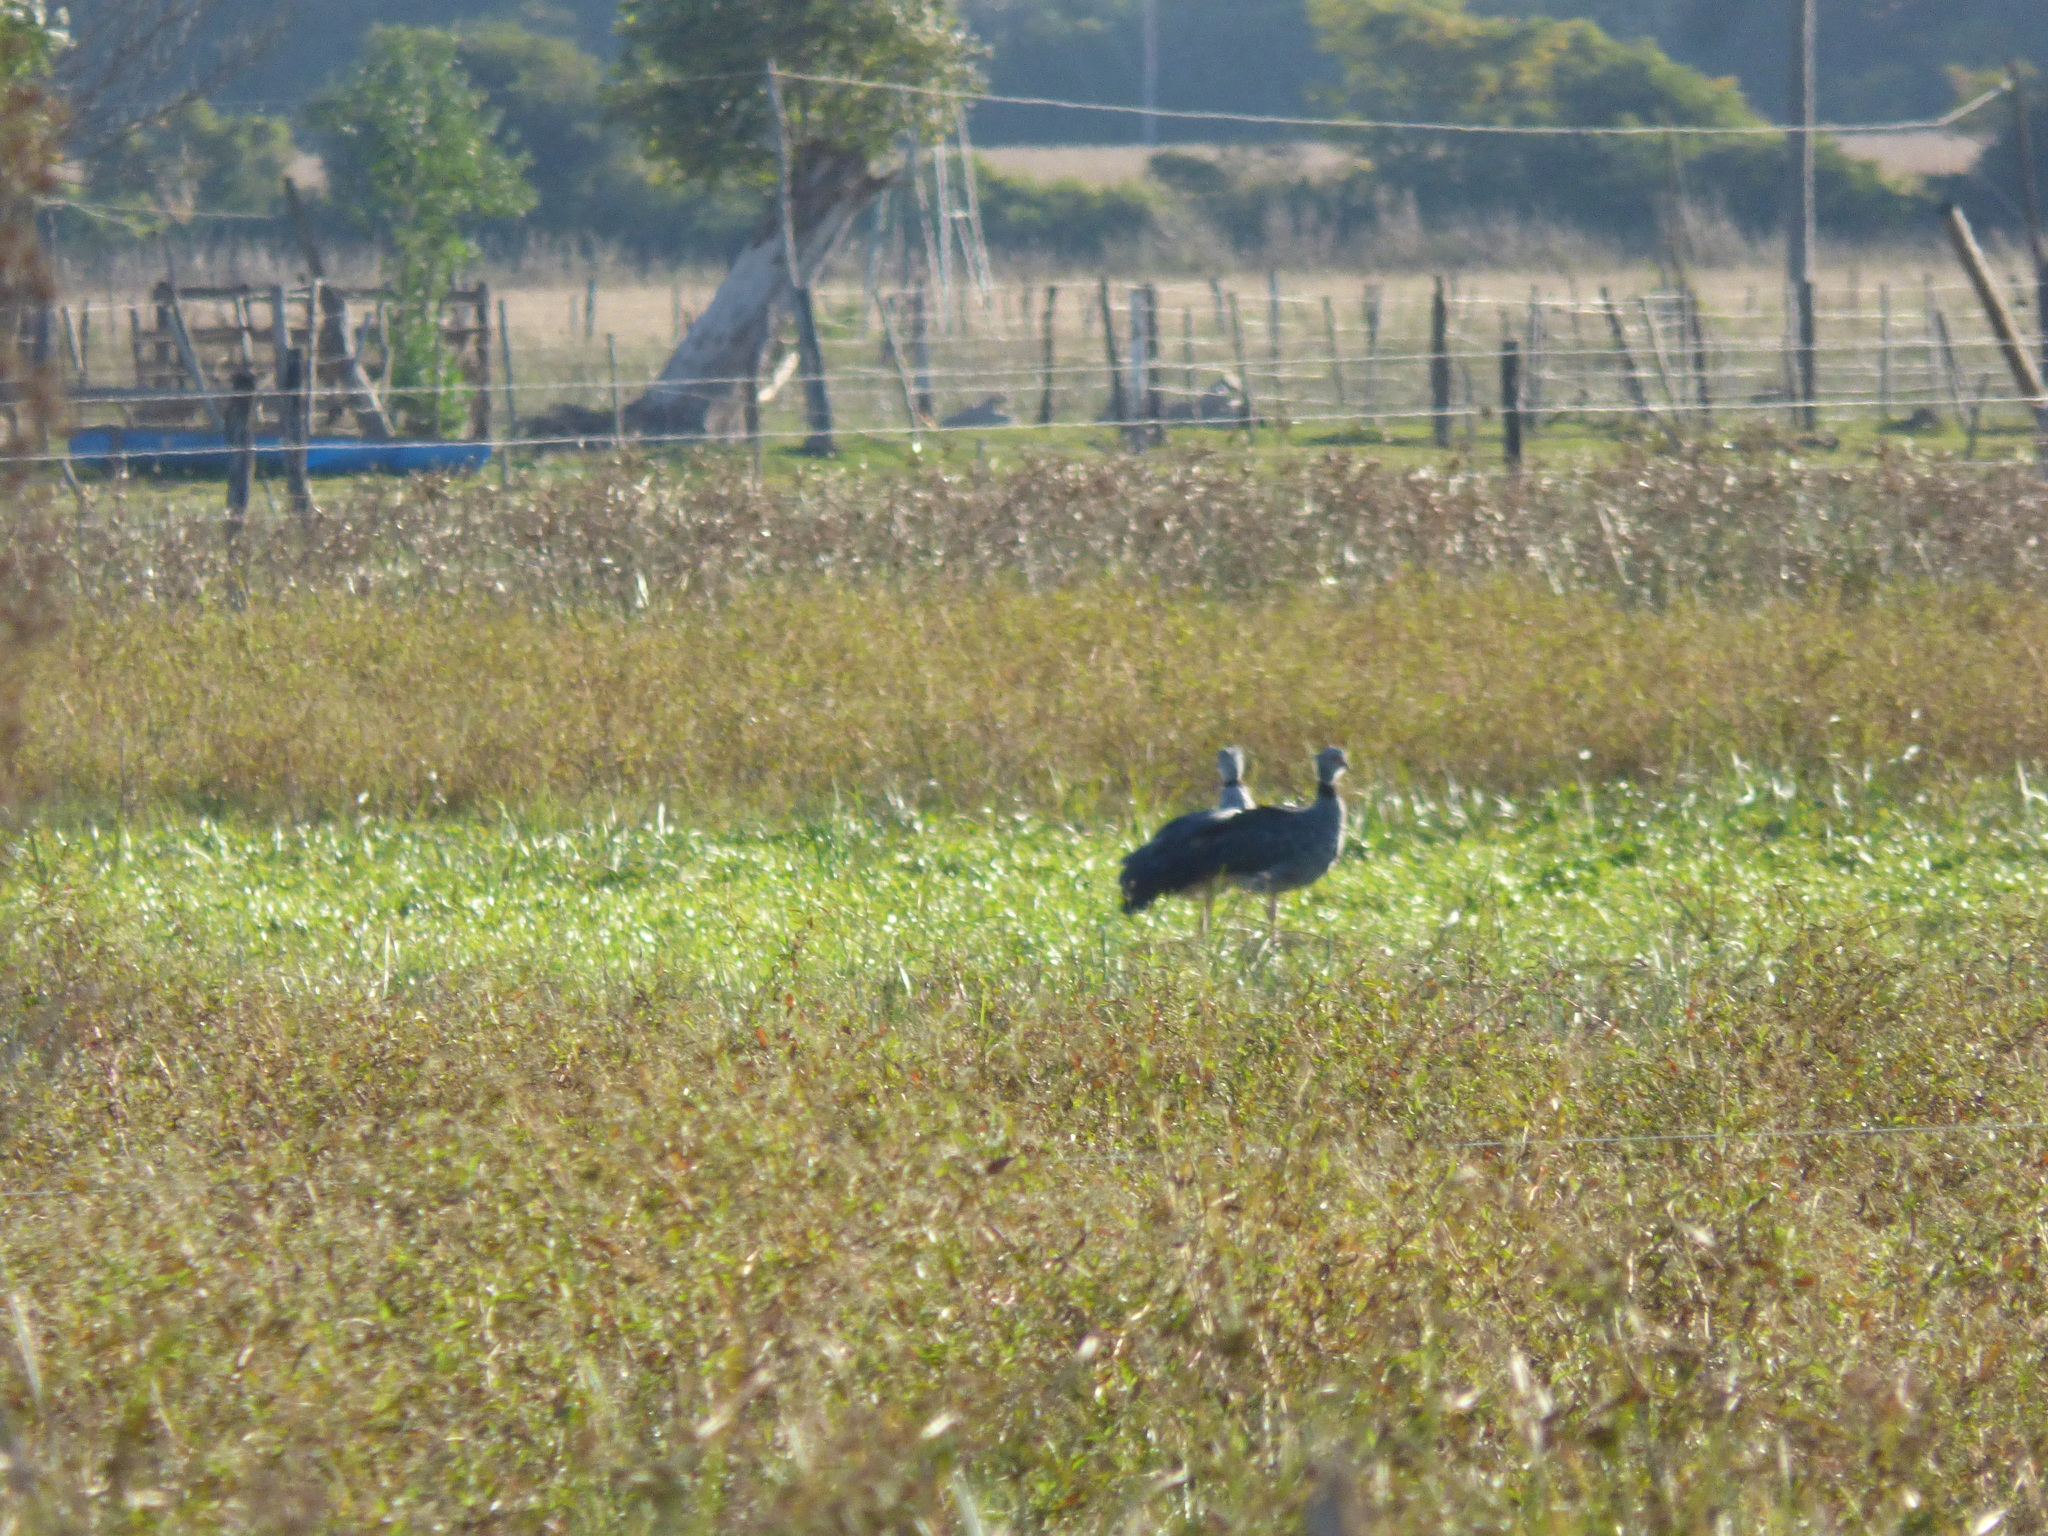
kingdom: Animalia
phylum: Chordata
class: Aves
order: Anseriformes
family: Anhimidae
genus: Chauna
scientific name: Chauna torquata
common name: Southern screamer
